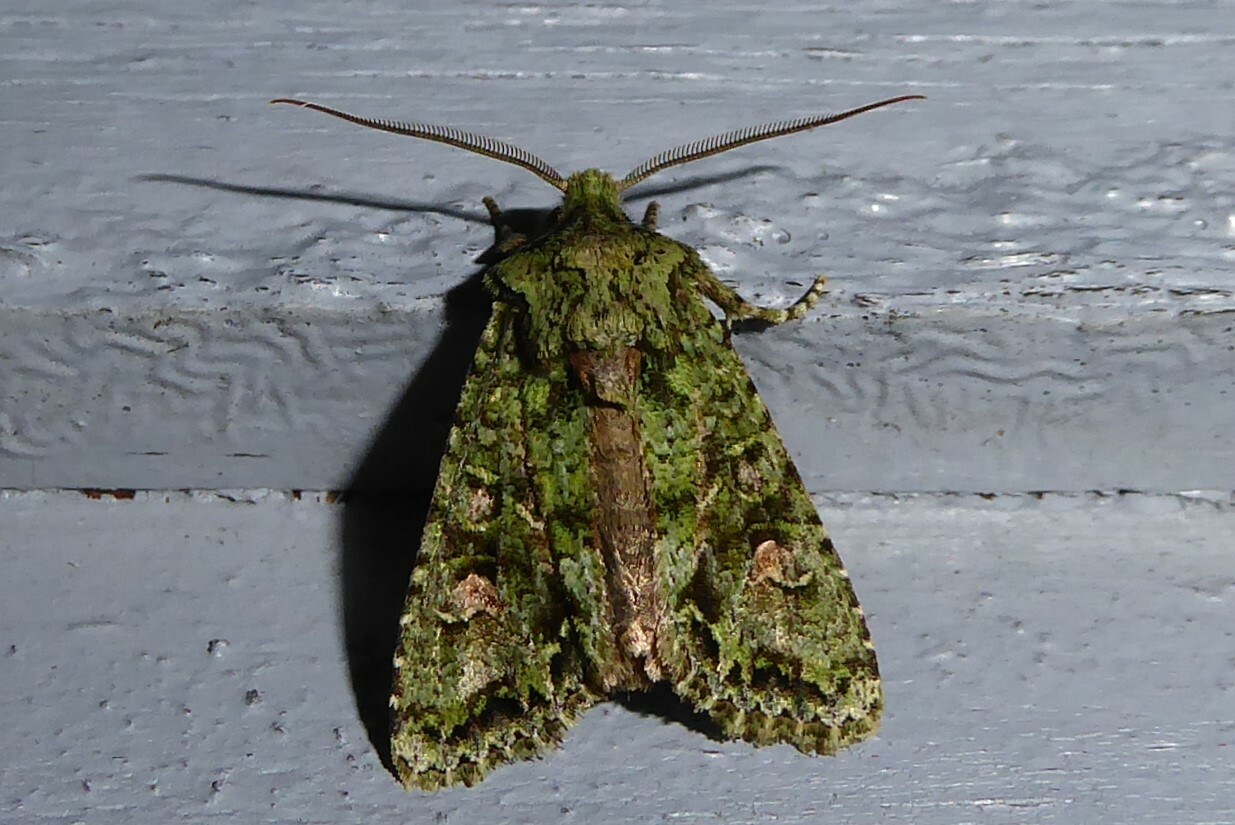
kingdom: Animalia
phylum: Arthropoda
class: Insecta
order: Lepidoptera
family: Noctuidae
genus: Ichneutica
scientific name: Ichneutica
